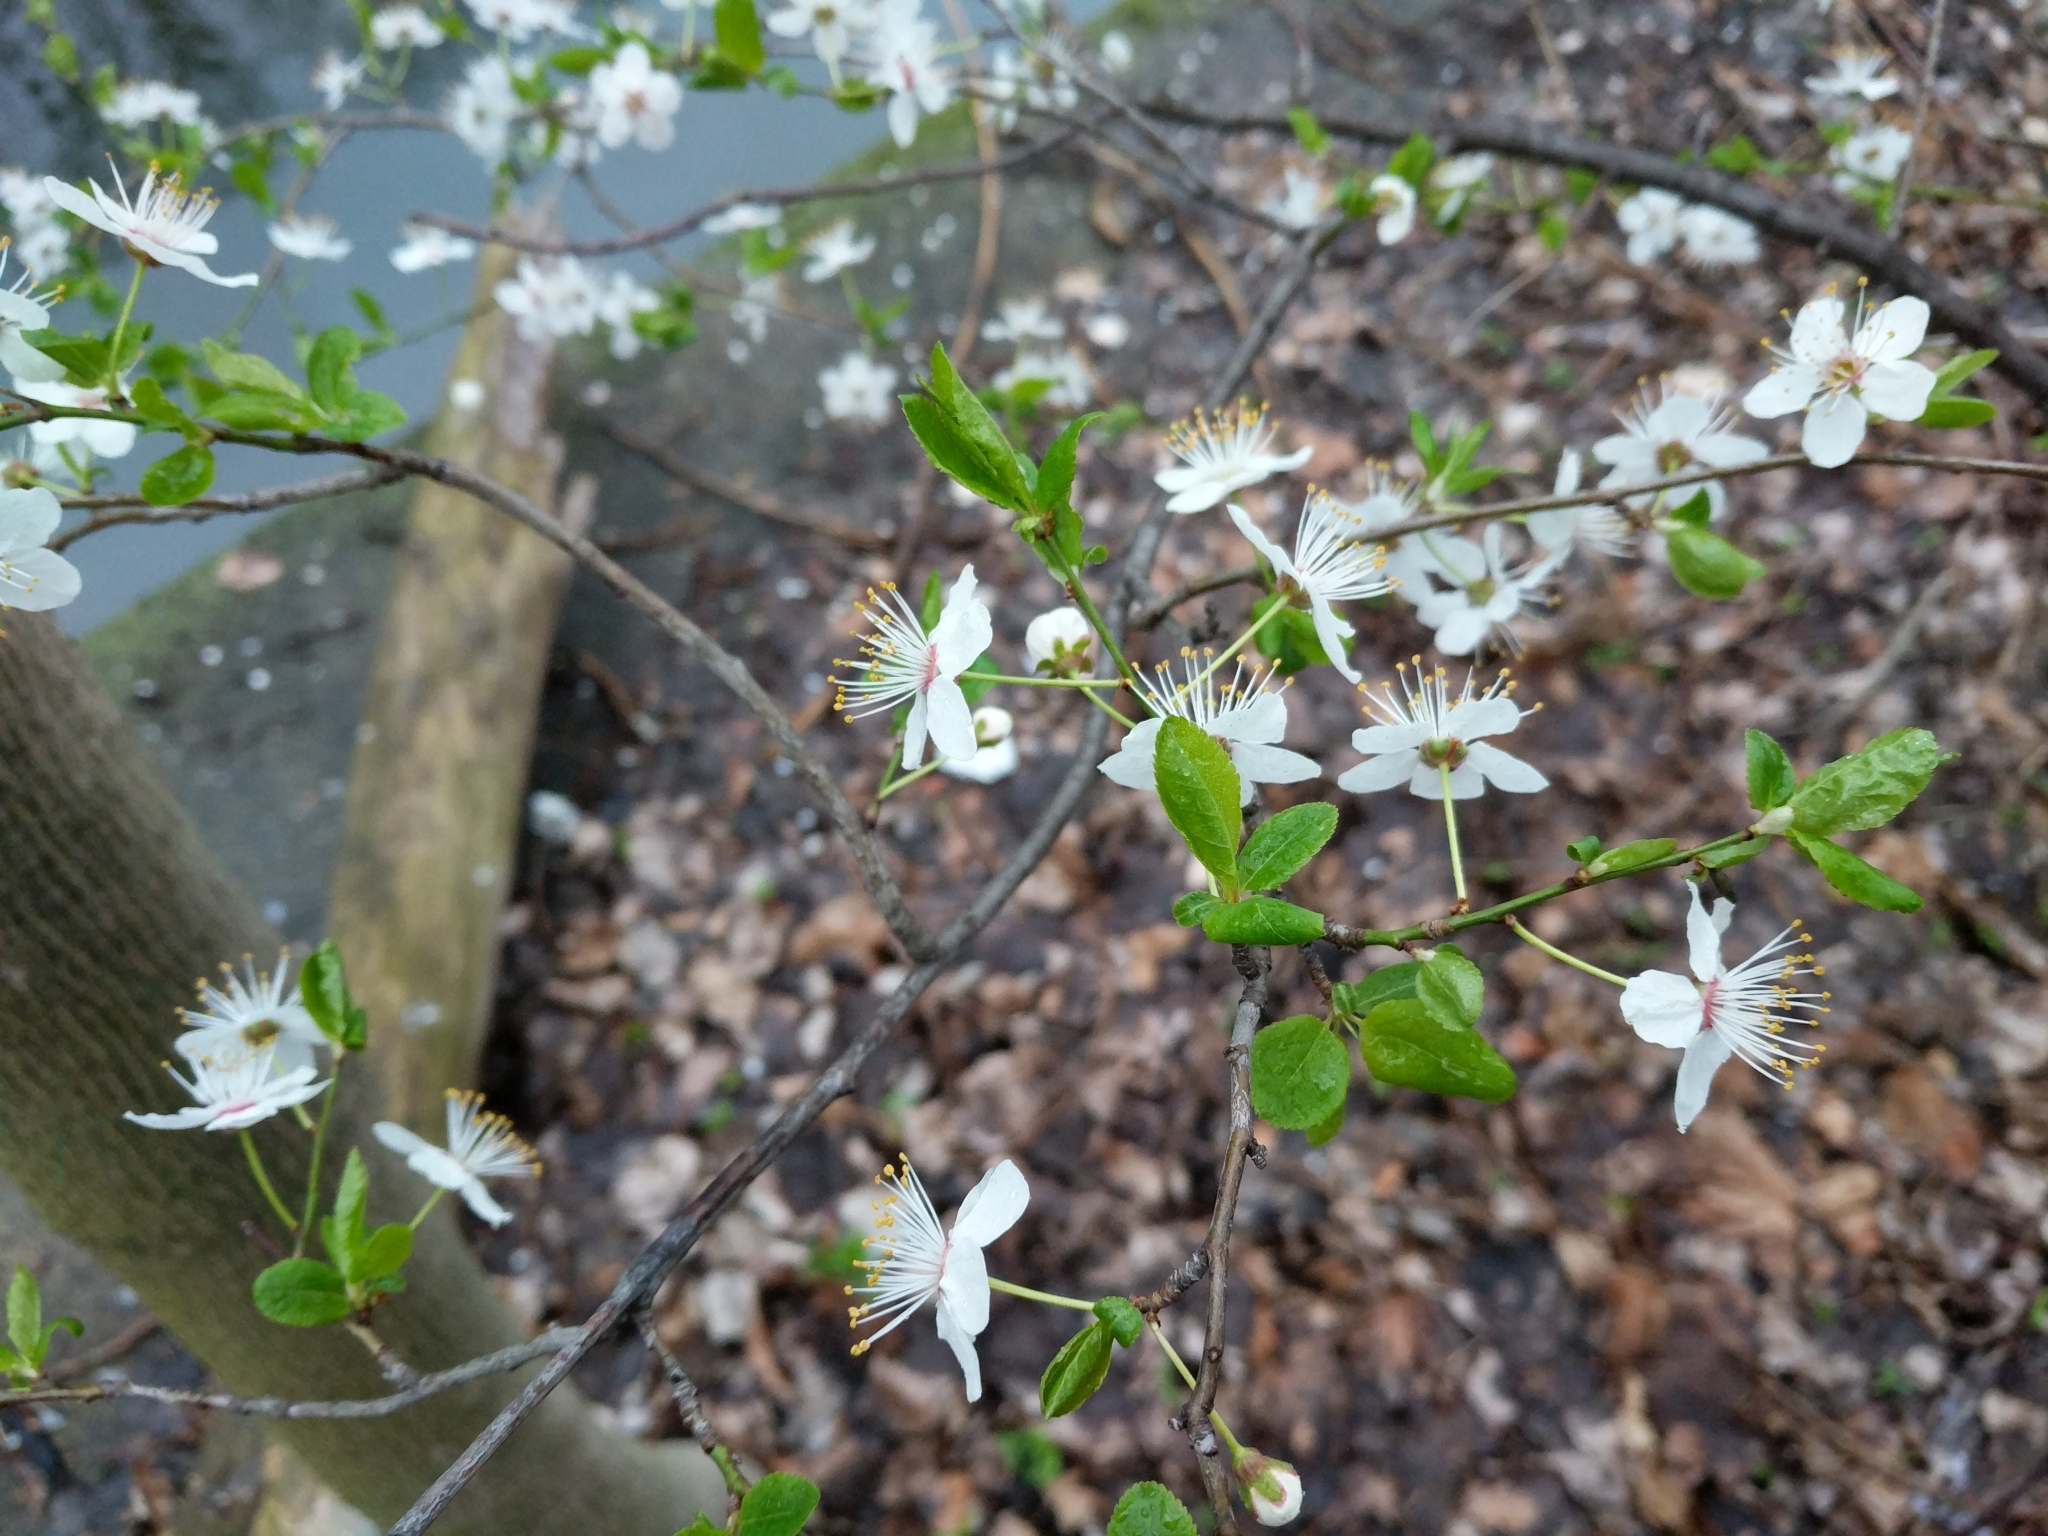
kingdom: Plantae
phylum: Tracheophyta
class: Magnoliopsida
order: Rosales
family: Rosaceae
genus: Prunus
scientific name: Prunus cerasifera
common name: Cherry plum
